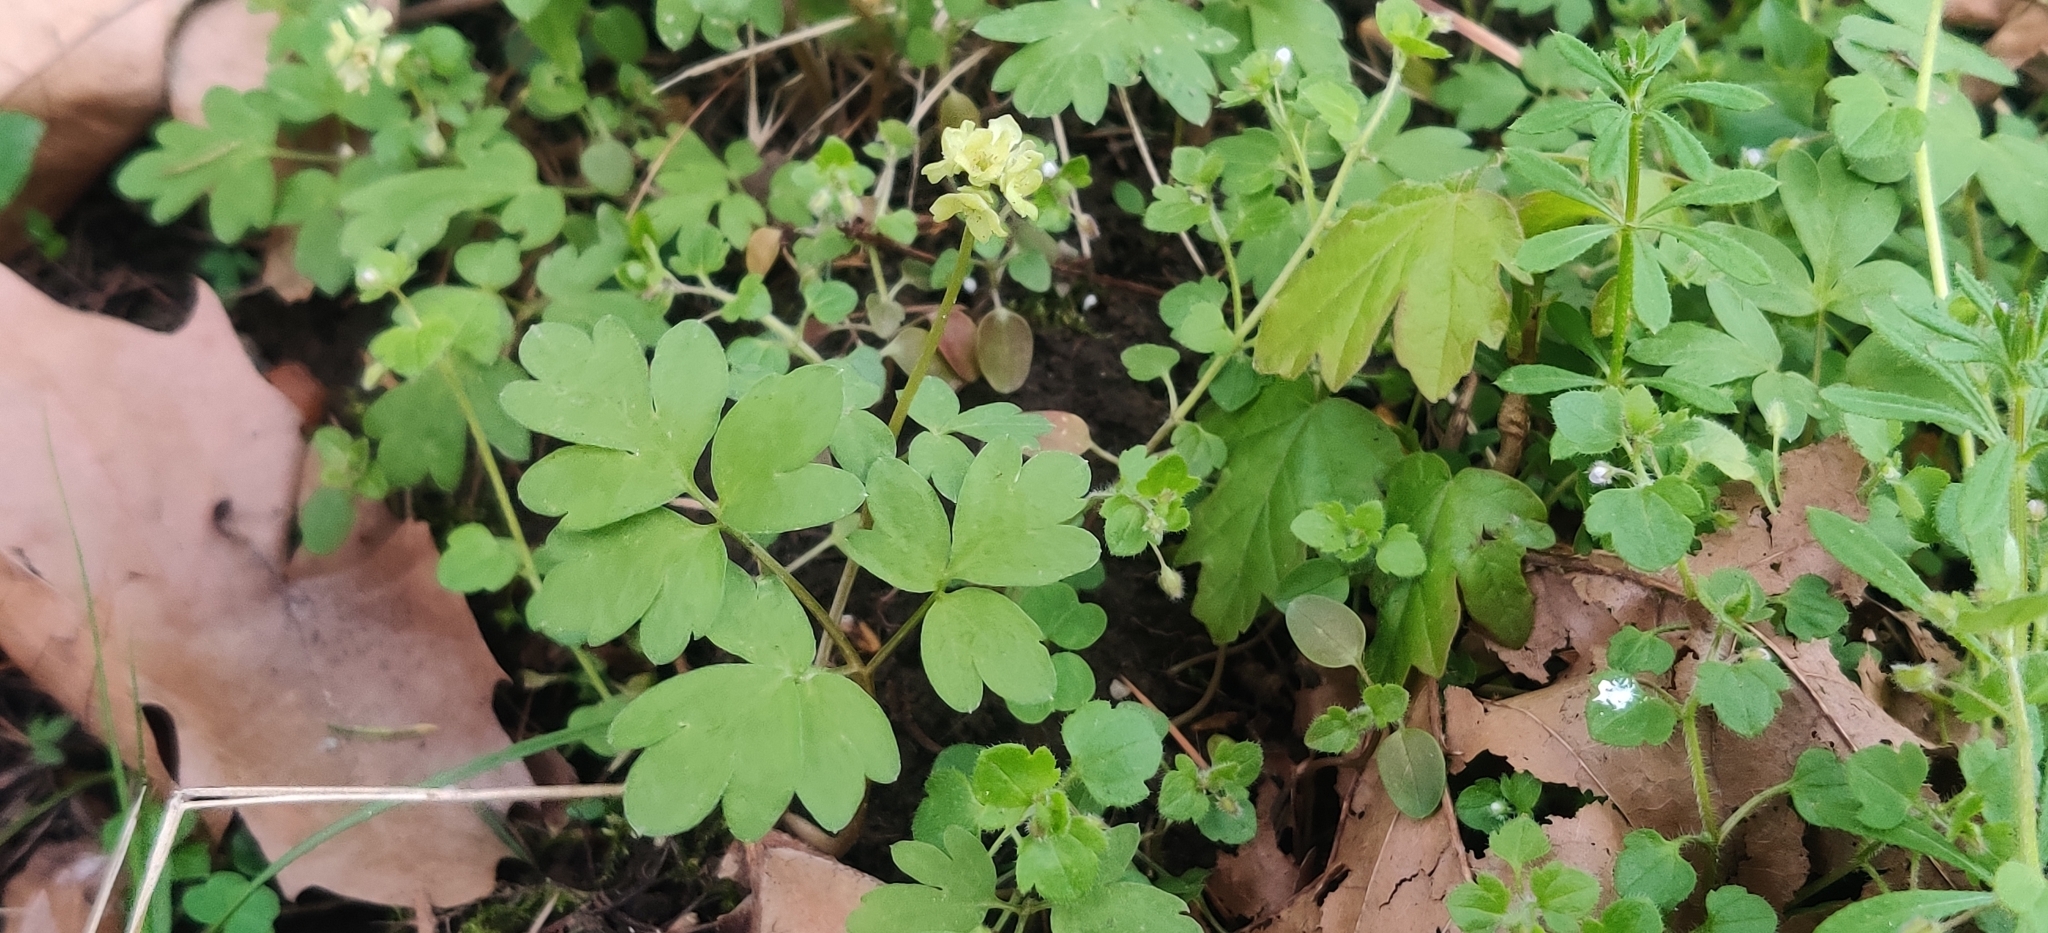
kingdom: Plantae
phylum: Tracheophyta
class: Magnoliopsida
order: Dipsacales
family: Viburnaceae
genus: Adoxa
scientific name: Adoxa moschatellina
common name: Moschatel
